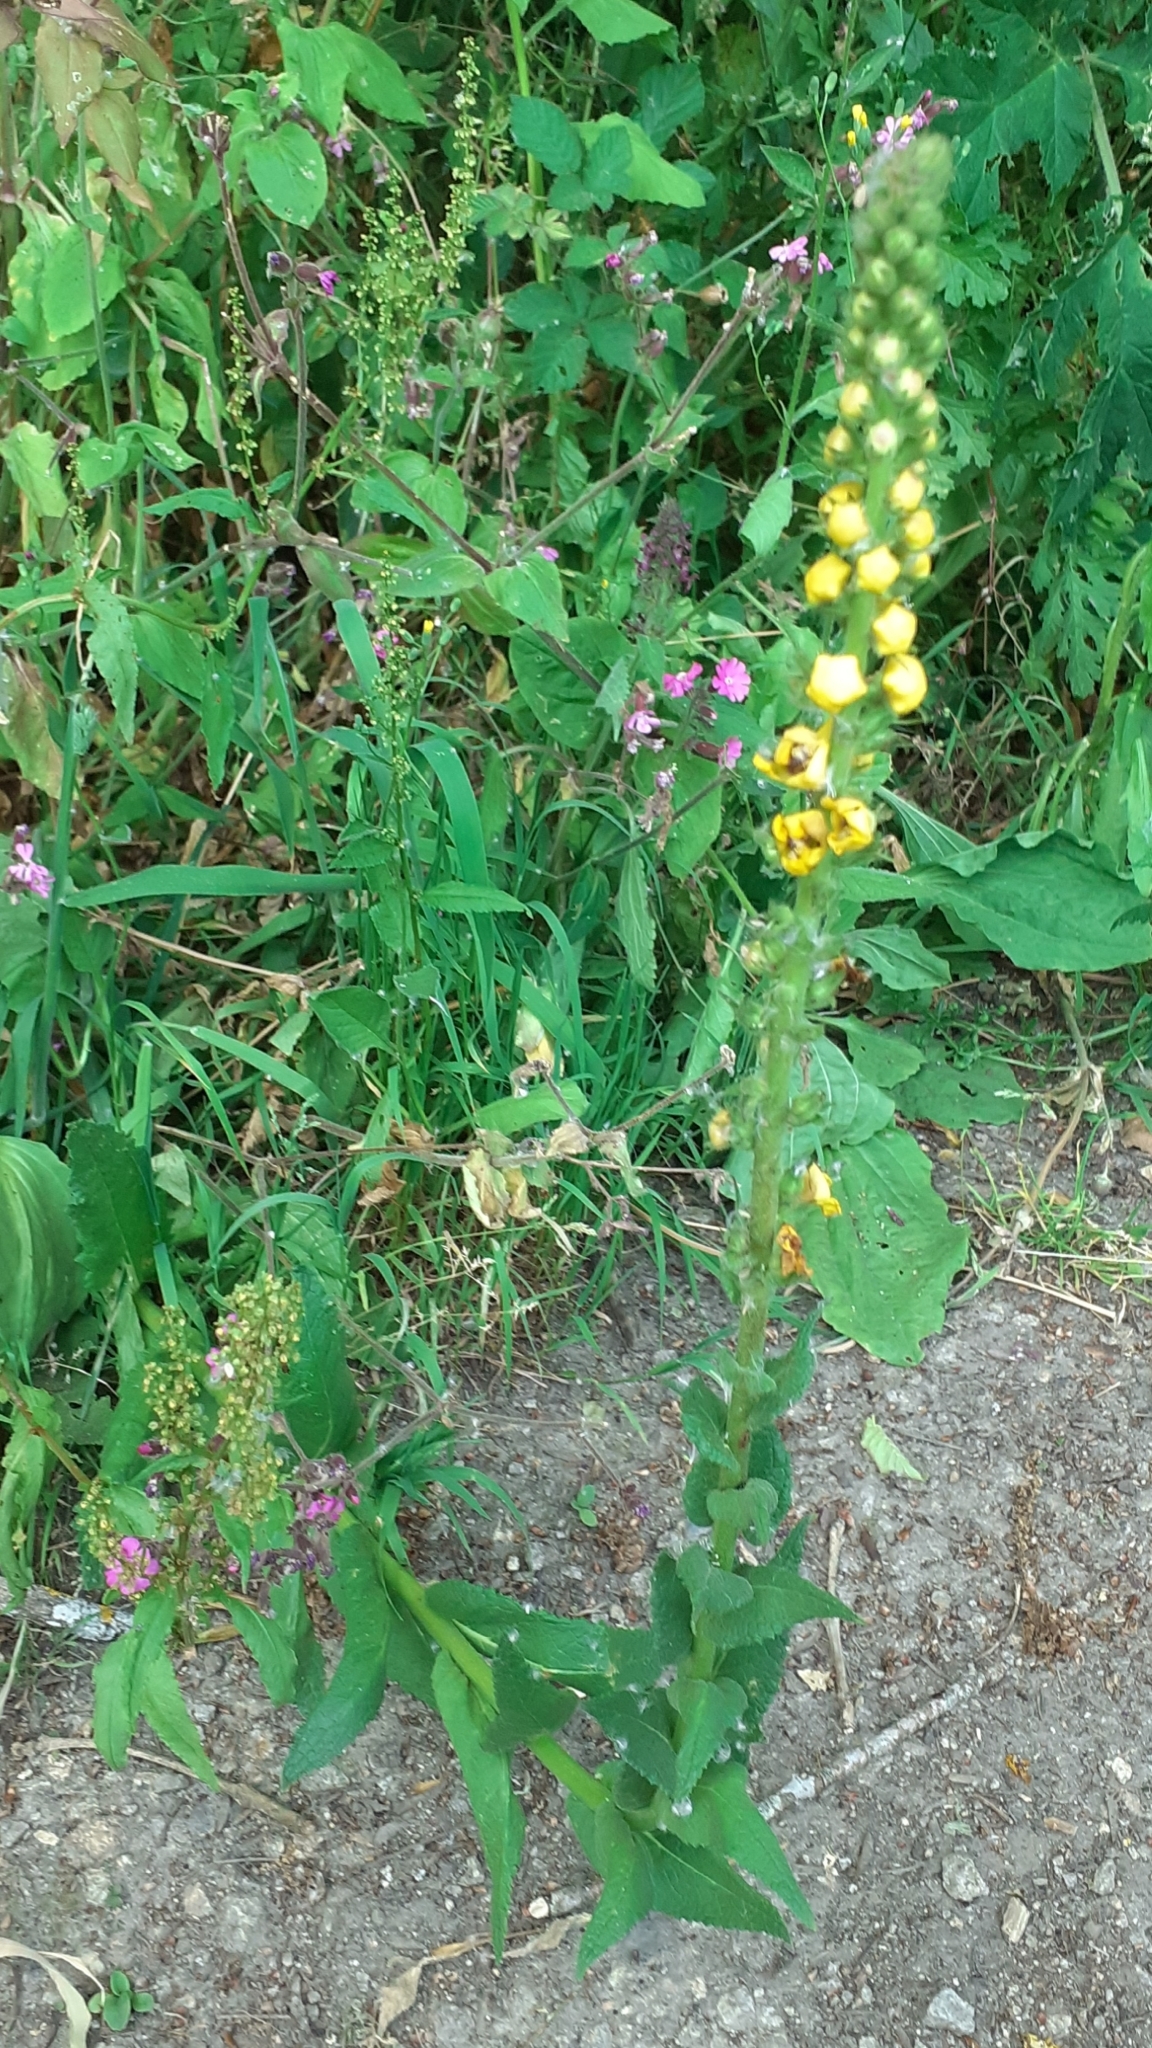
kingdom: Plantae
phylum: Tracheophyta
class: Magnoliopsida
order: Lamiales
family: Scrophulariaceae
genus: Verbascum
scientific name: Verbascum nigrum
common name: Dark mullein
